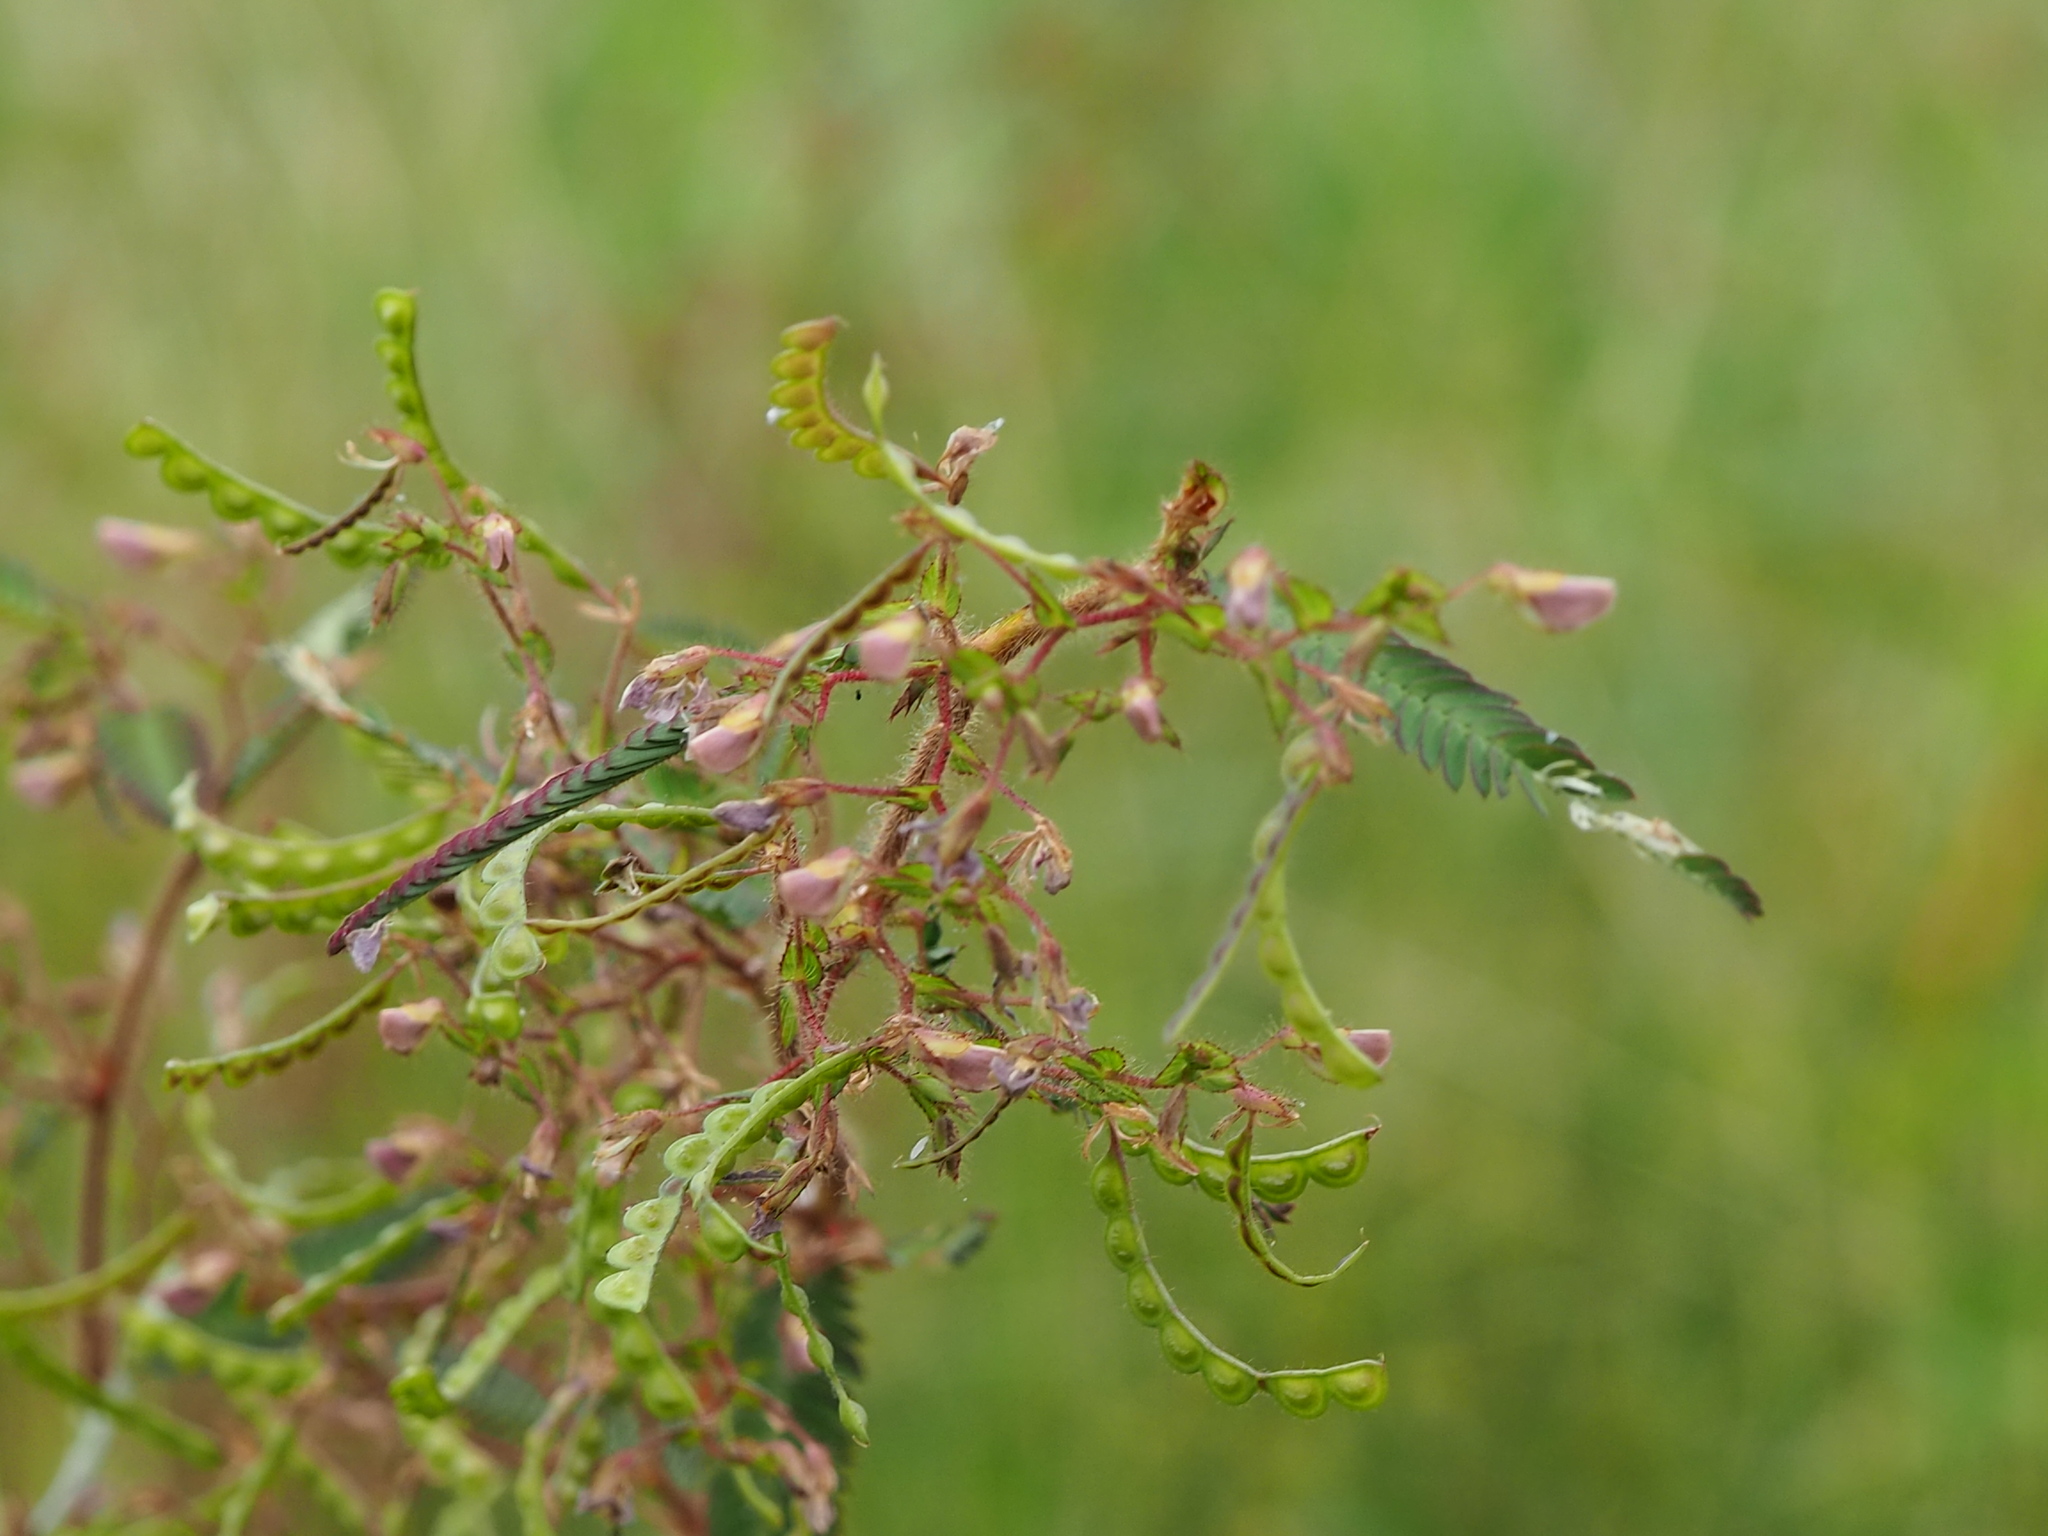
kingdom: Plantae
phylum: Tracheophyta
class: Magnoliopsida
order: Fabales
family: Fabaceae
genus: Aeschynomene
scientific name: Aeschynomene americana
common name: Joint-vetch
